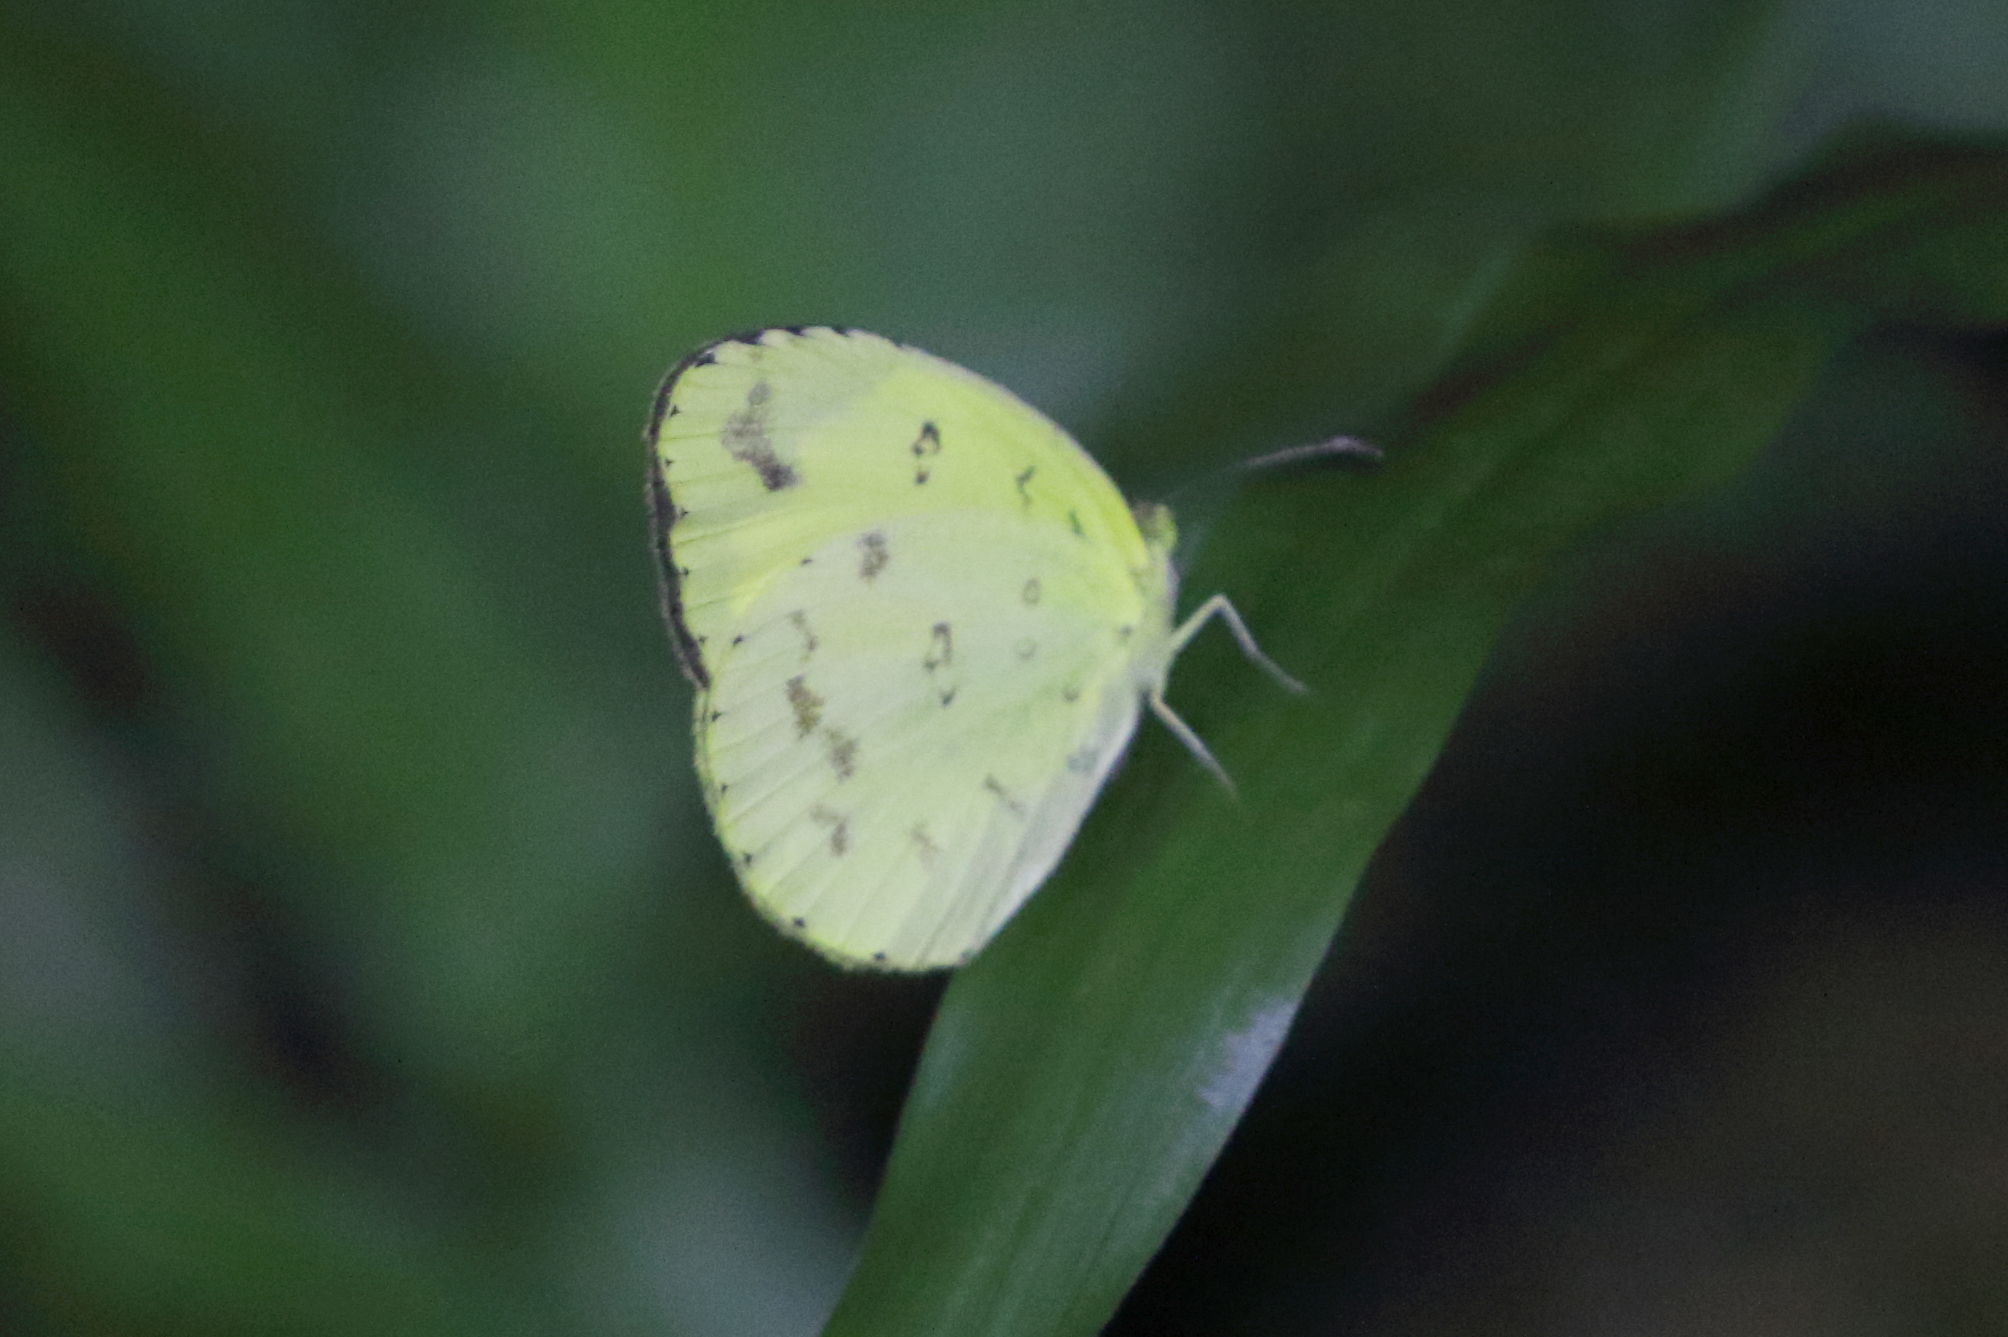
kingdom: Animalia
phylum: Arthropoda
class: Insecta
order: Lepidoptera
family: Pieridae
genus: Eurema
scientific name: Eurema hecabe
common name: Pale grass yellow
